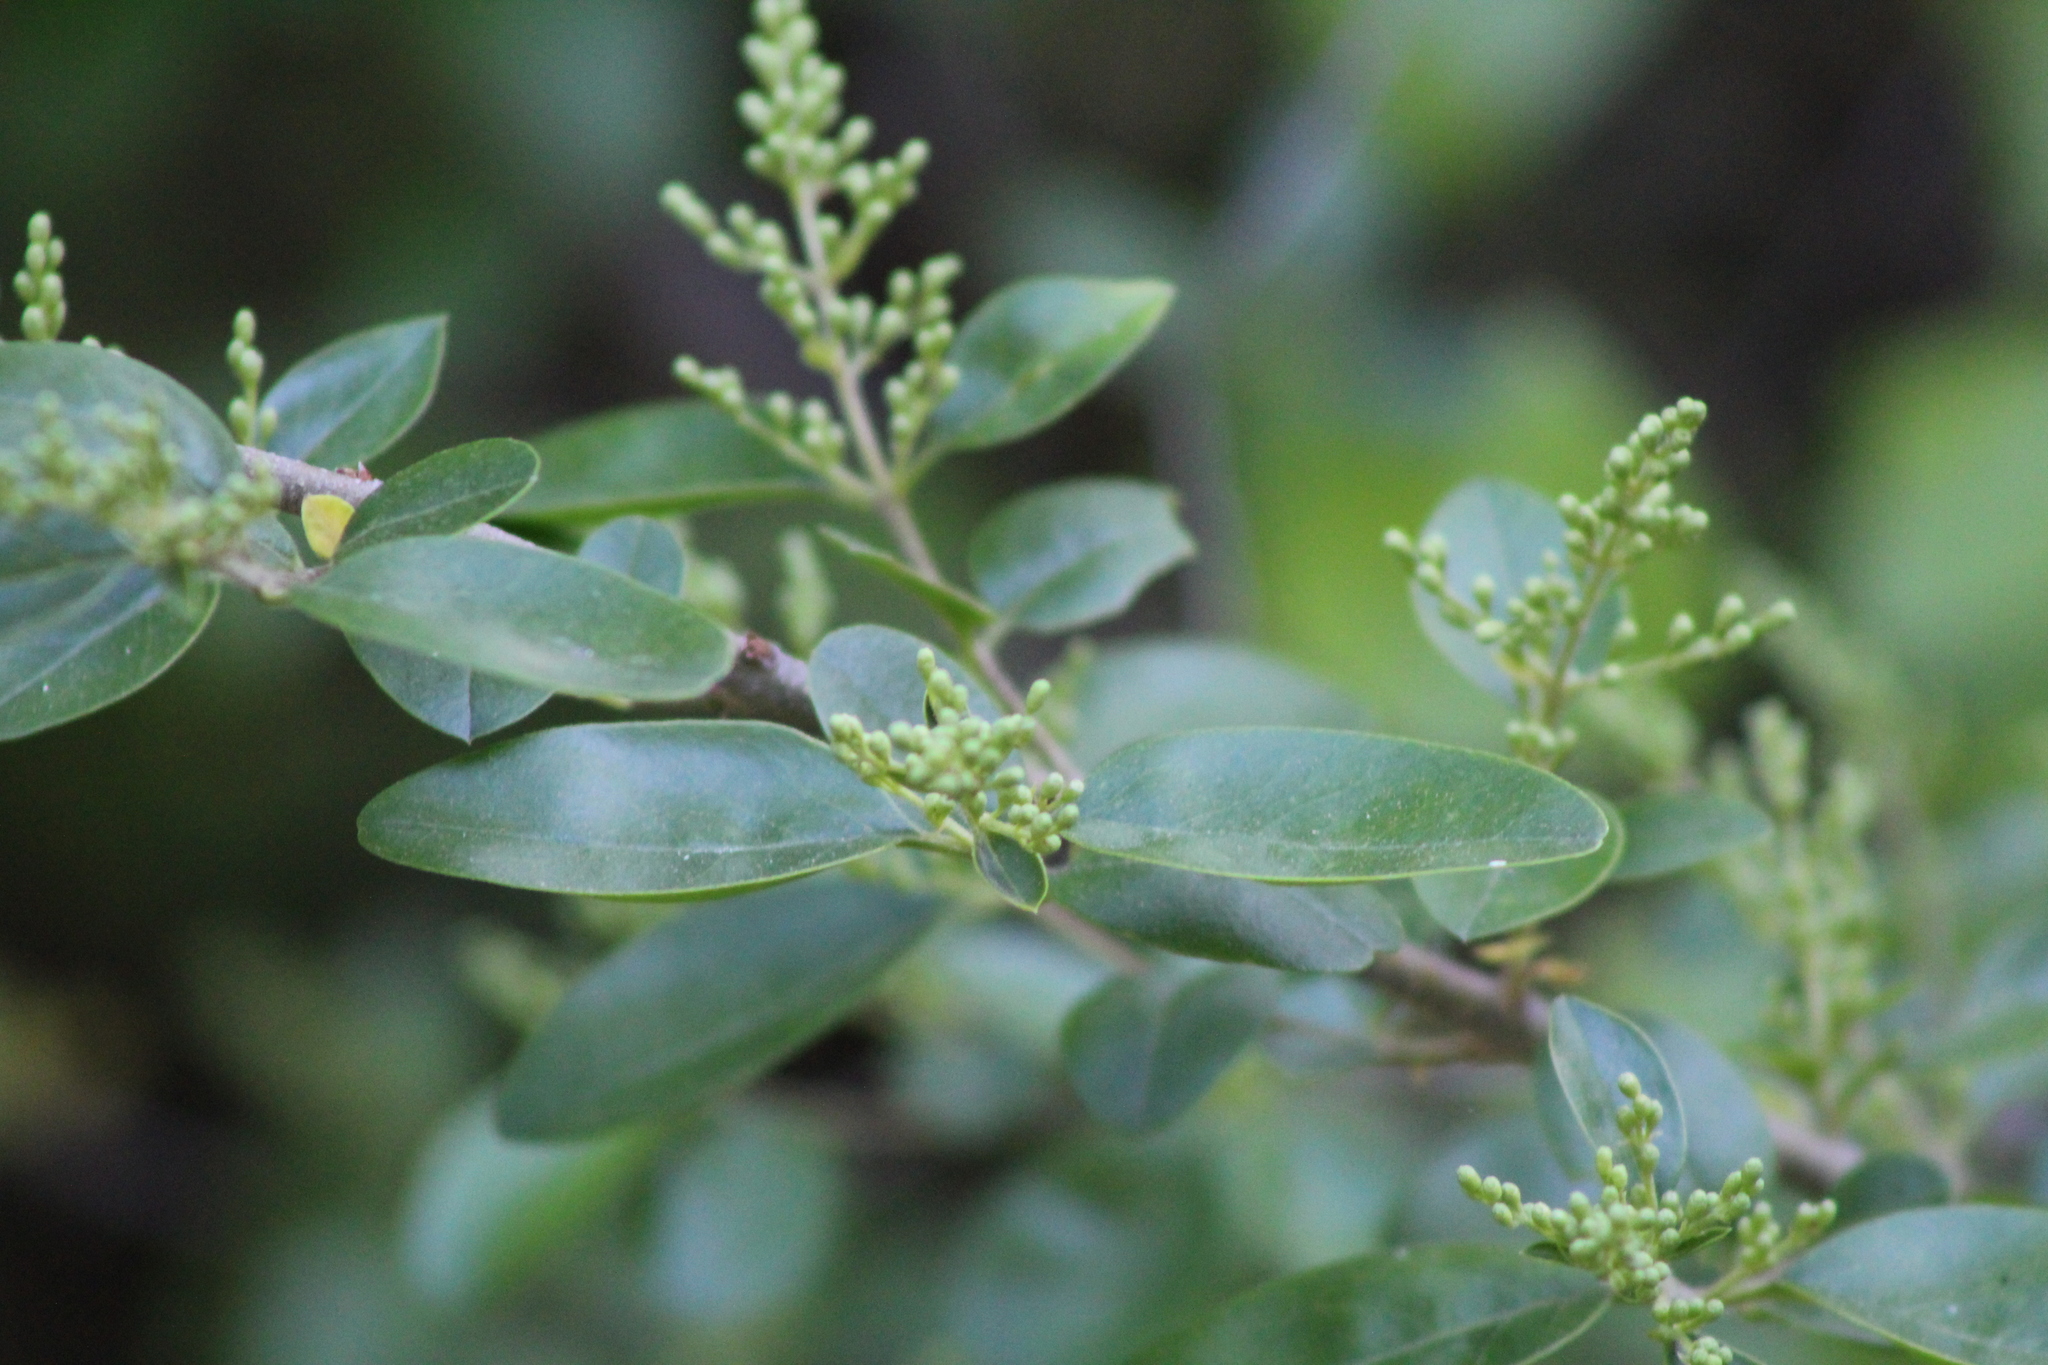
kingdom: Plantae
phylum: Tracheophyta
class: Magnoliopsida
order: Lamiales
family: Oleaceae
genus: Ligustrum
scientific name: Ligustrum sinense
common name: Chinese privet
